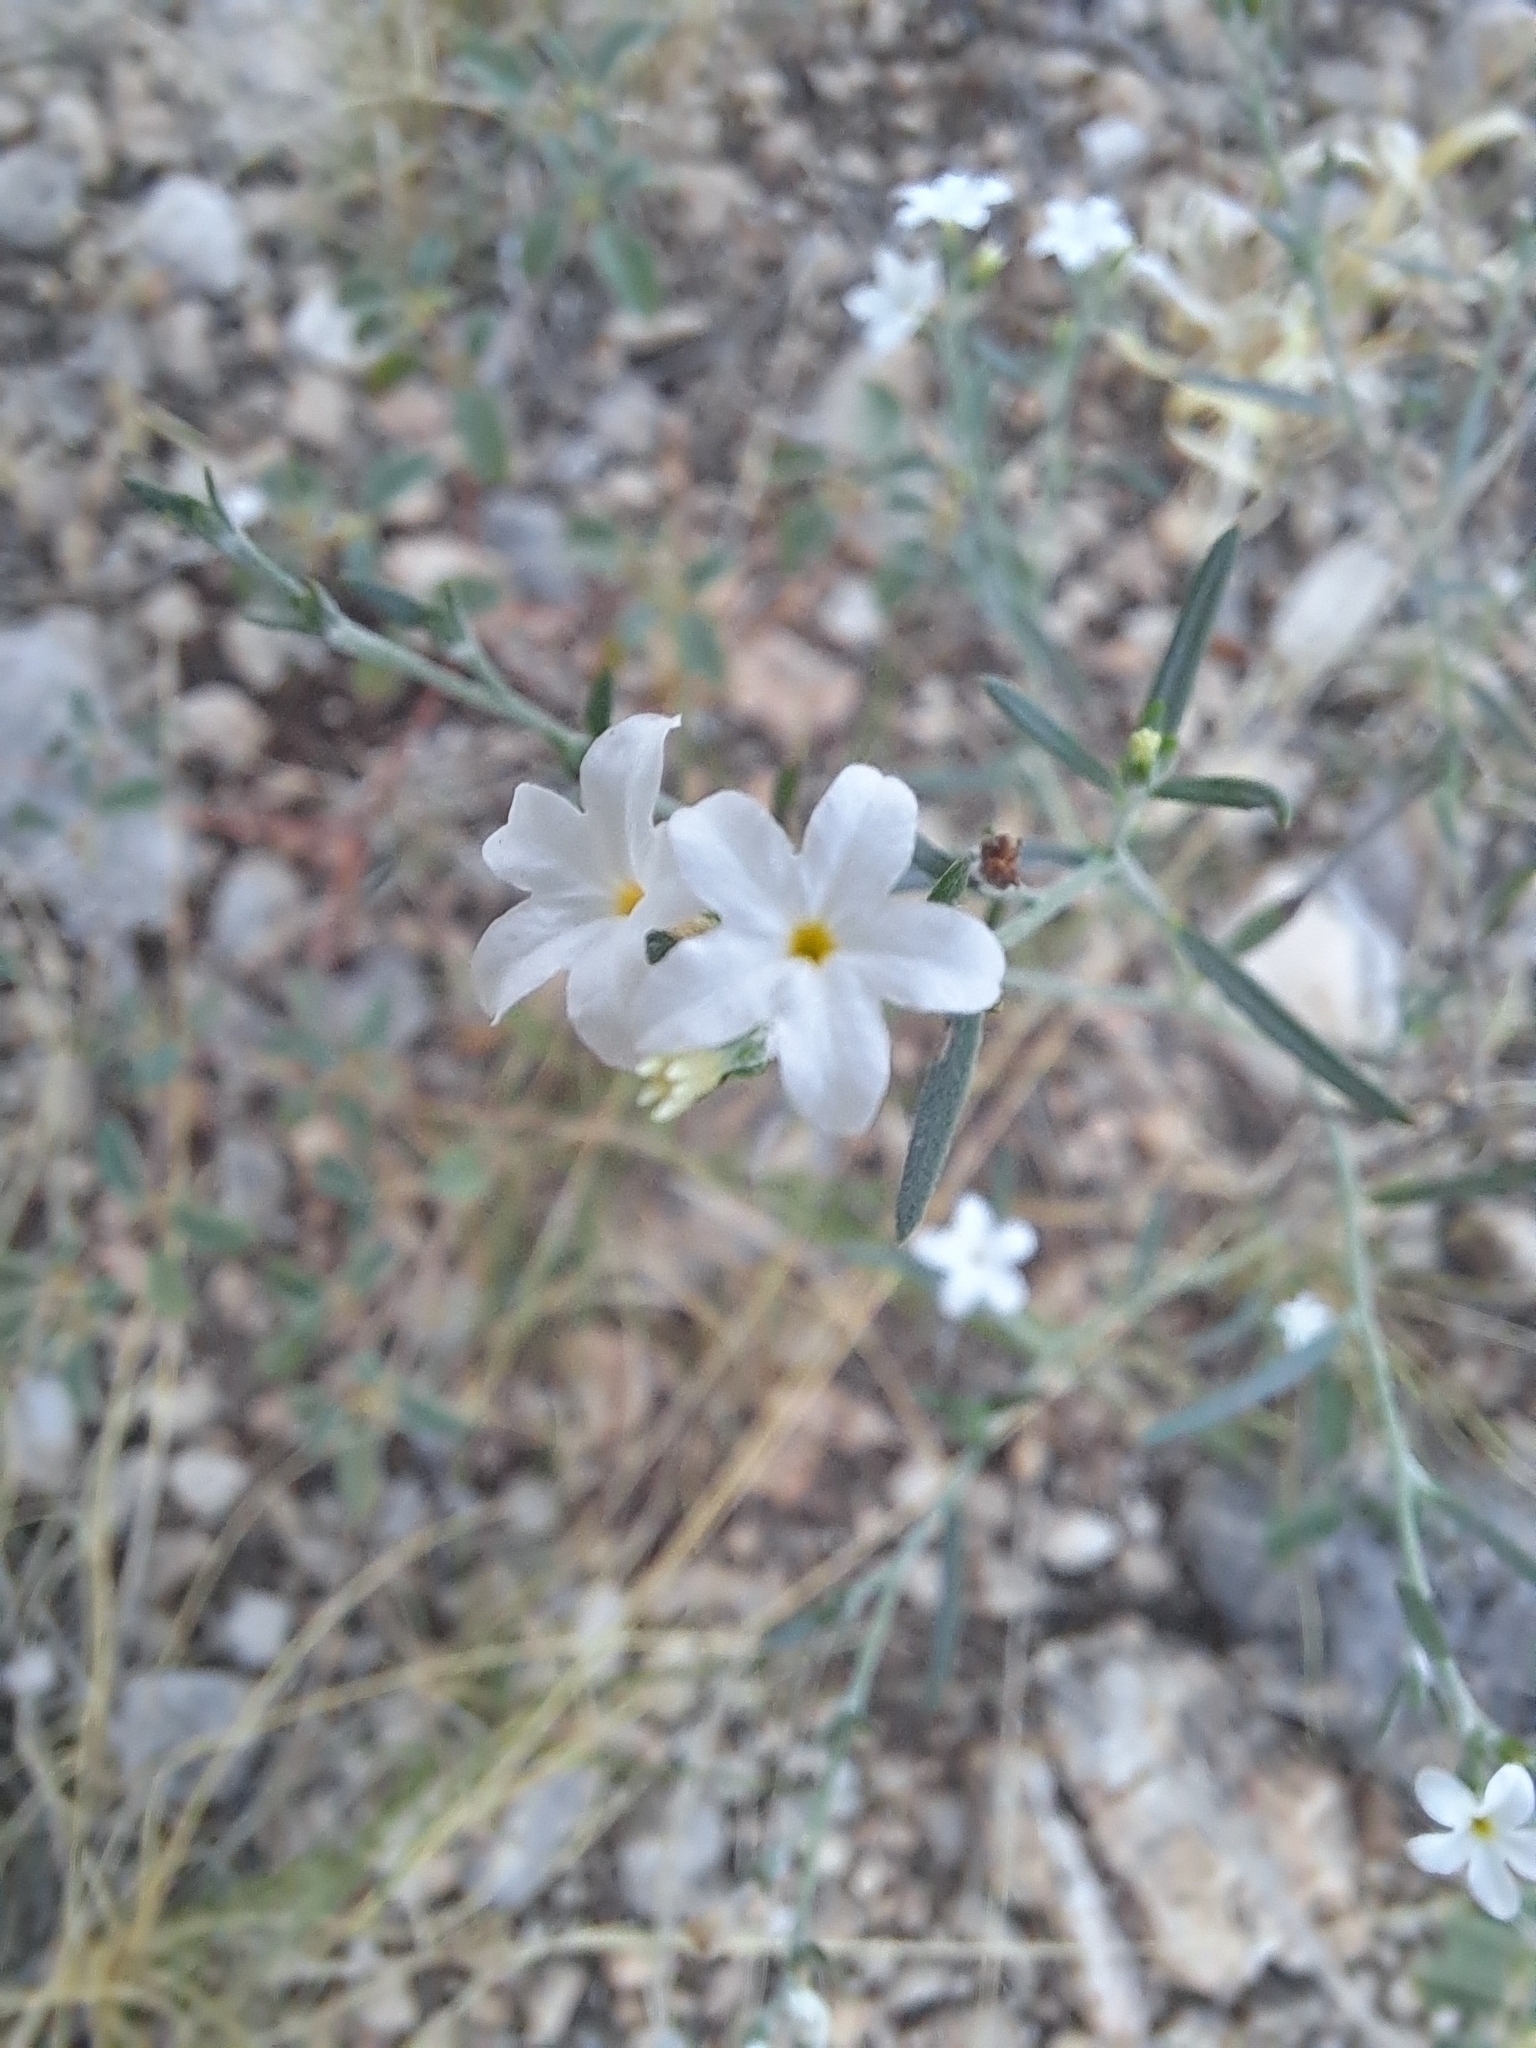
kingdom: Plantae
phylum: Tracheophyta
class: Magnoliopsida
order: Boraginales
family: Heliotropiaceae
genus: Euploca
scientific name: Euploca tenella
